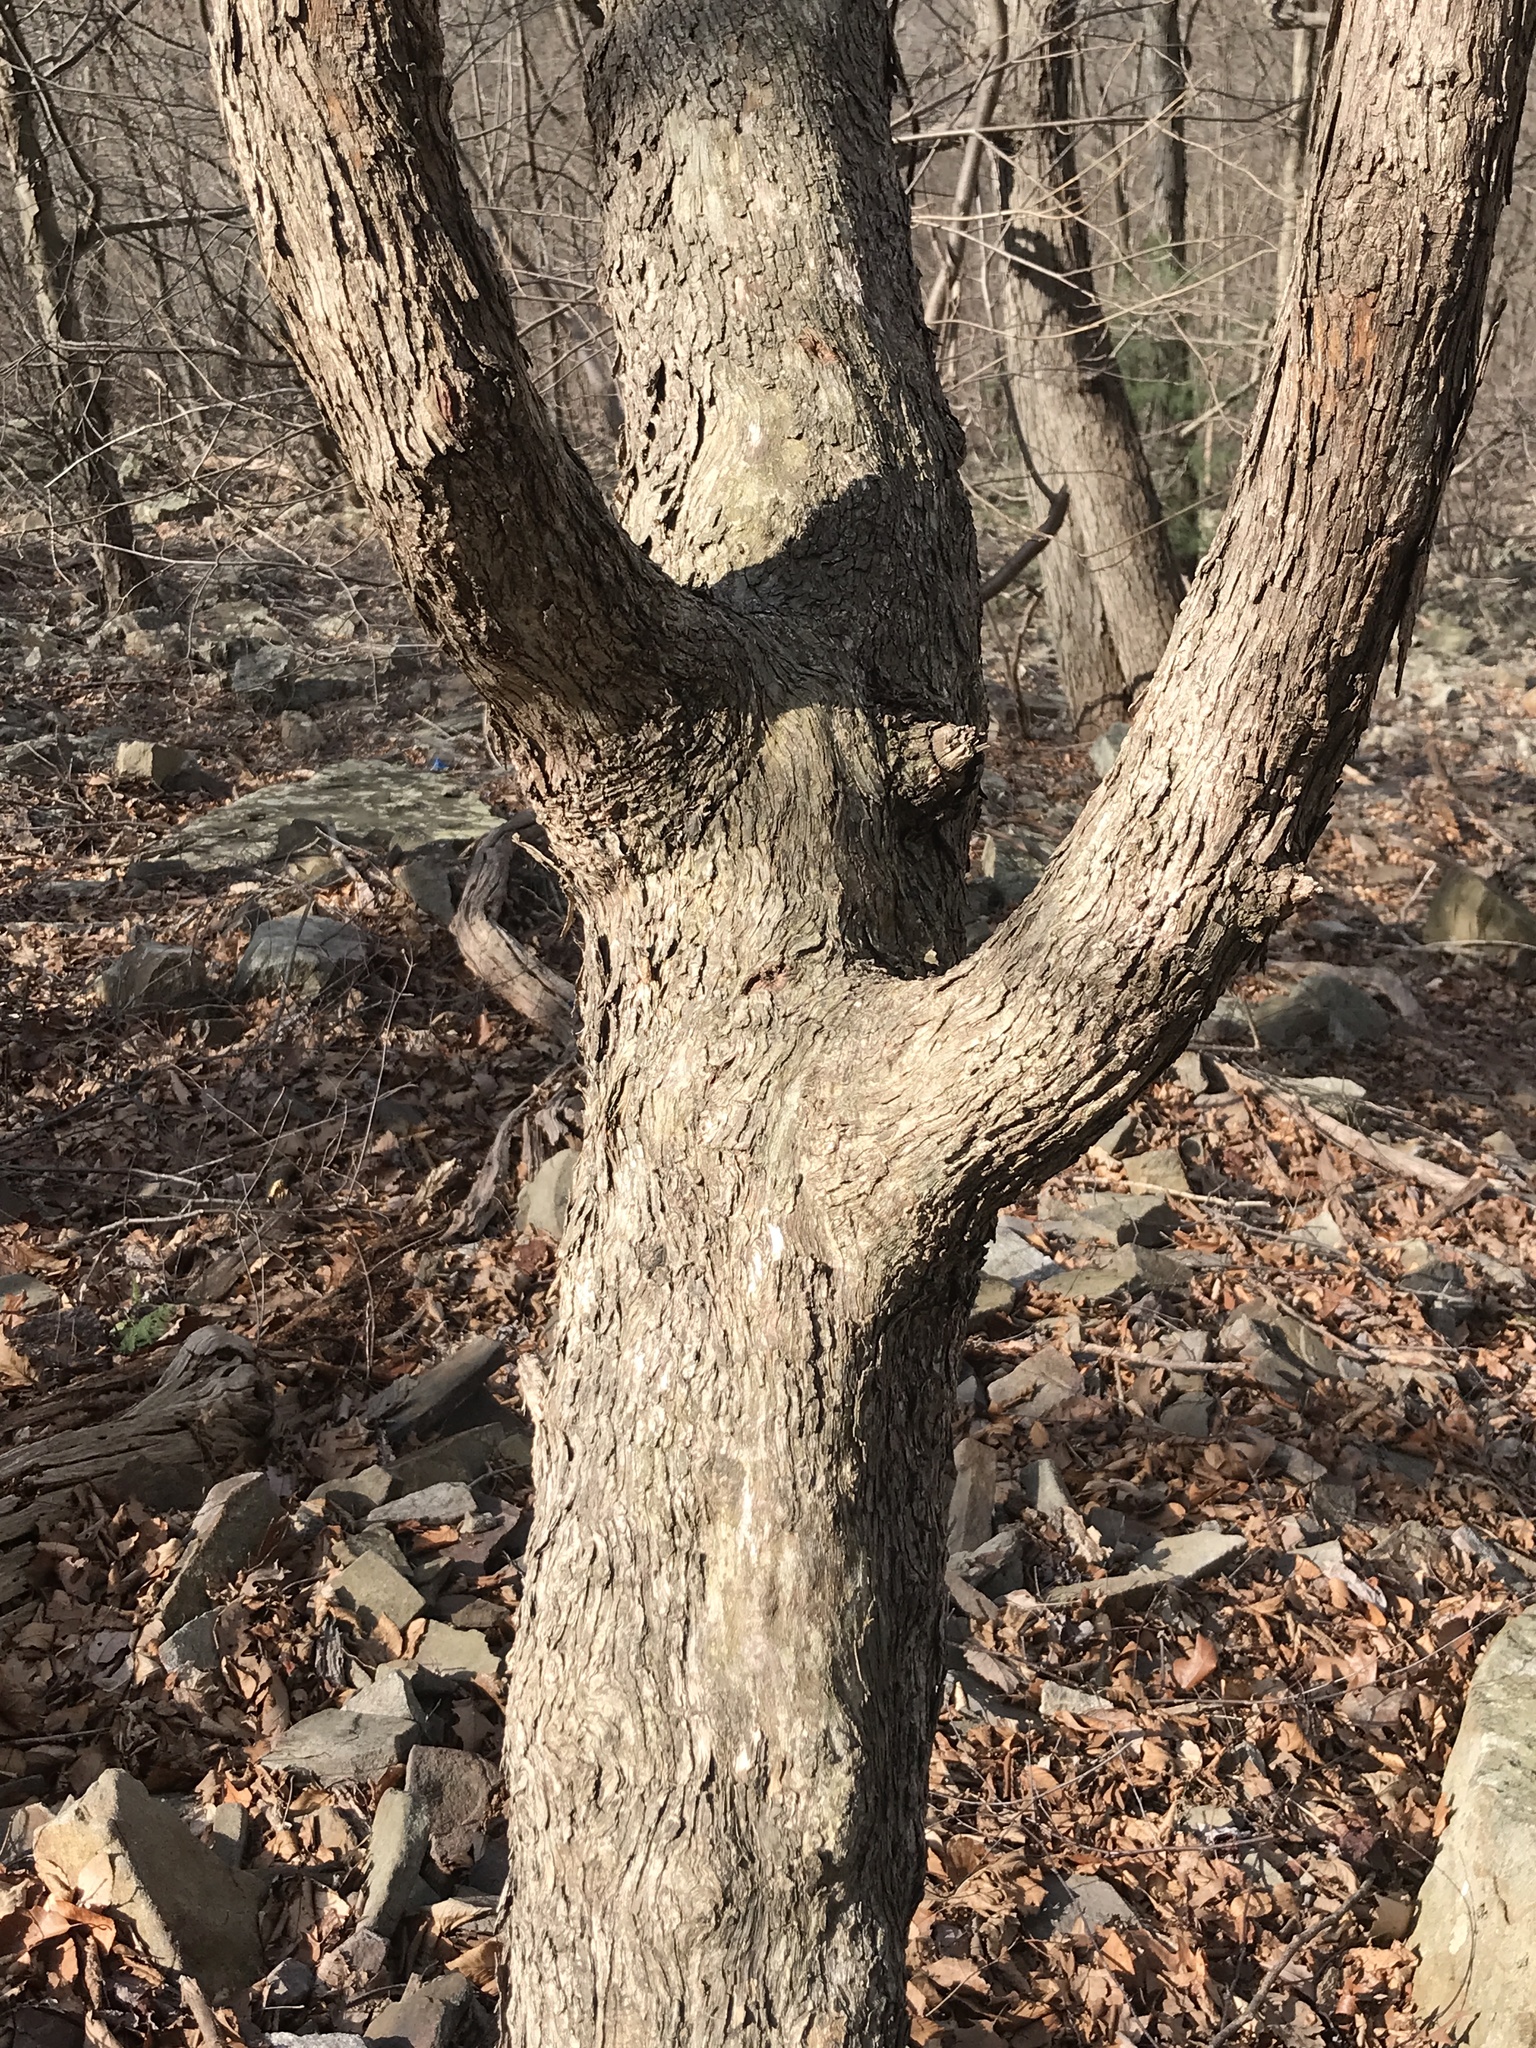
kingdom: Plantae
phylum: Tracheophyta
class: Magnoliopsida
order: Fagales
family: Betulaceae
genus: Ostrya
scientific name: Ostrya virginiana
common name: Ironwood
